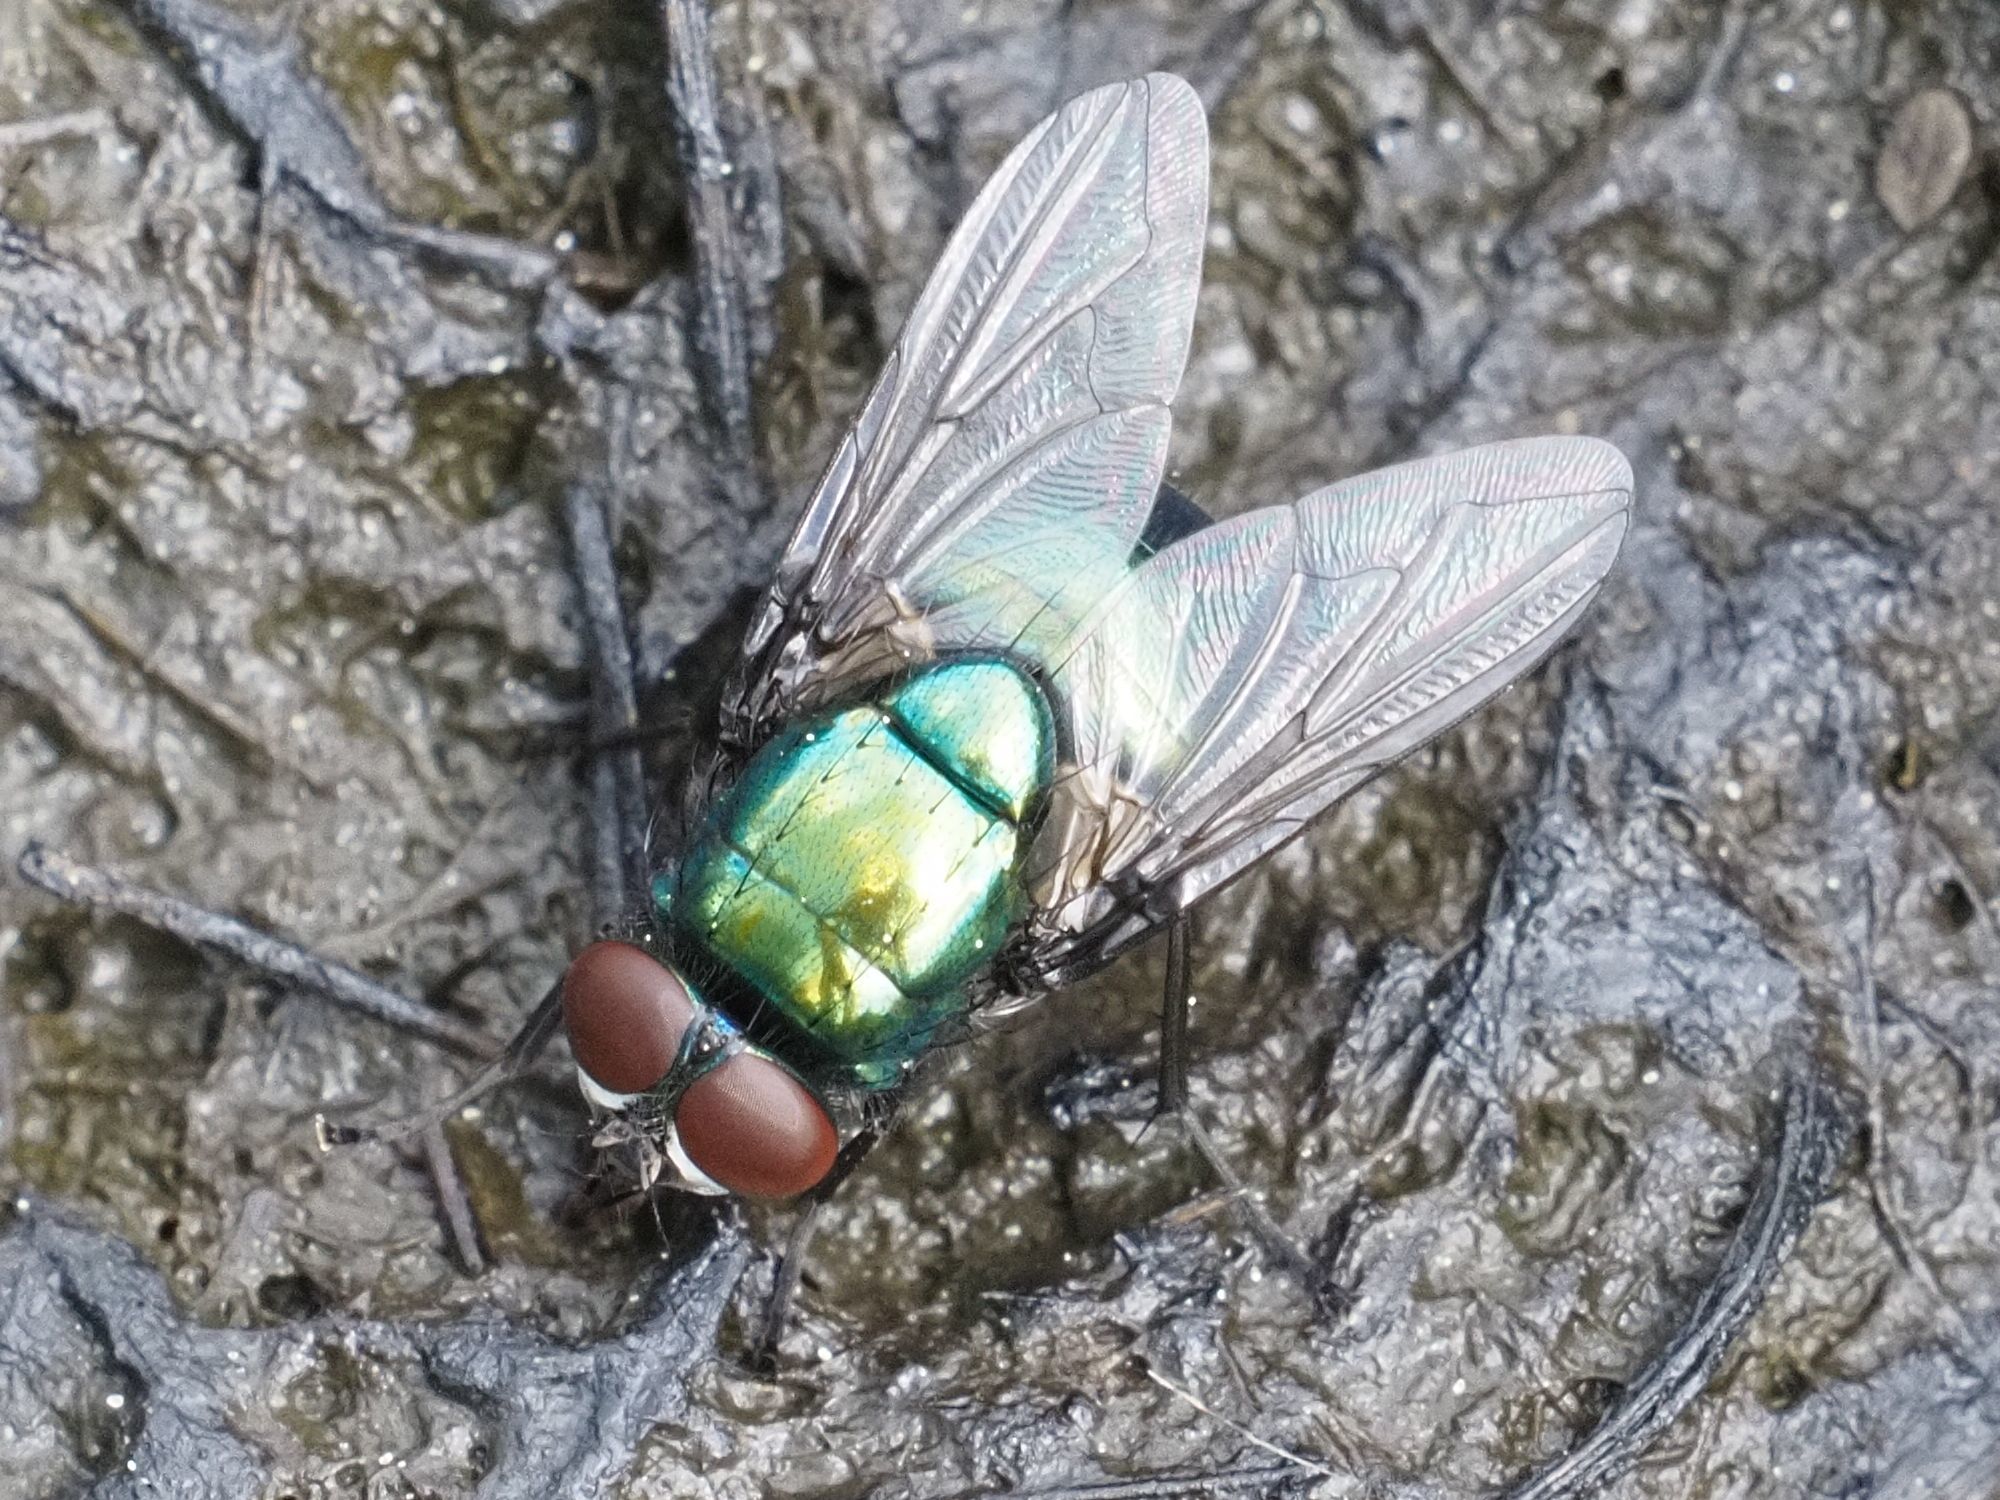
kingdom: Animalia
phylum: Arthropoda
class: Insecta
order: Diptera
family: Muscidae
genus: Neomyia
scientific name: Neomyia viridescens
